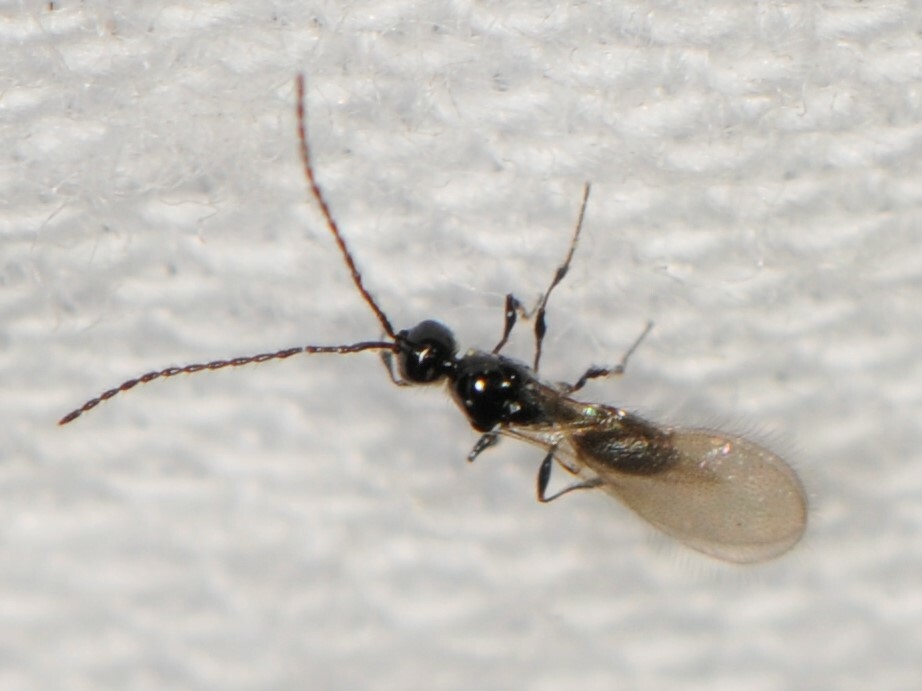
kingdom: Animalia
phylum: Arthropoda
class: Insecta
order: Hymenoptera
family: Diapriidae
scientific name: Diapriidae
